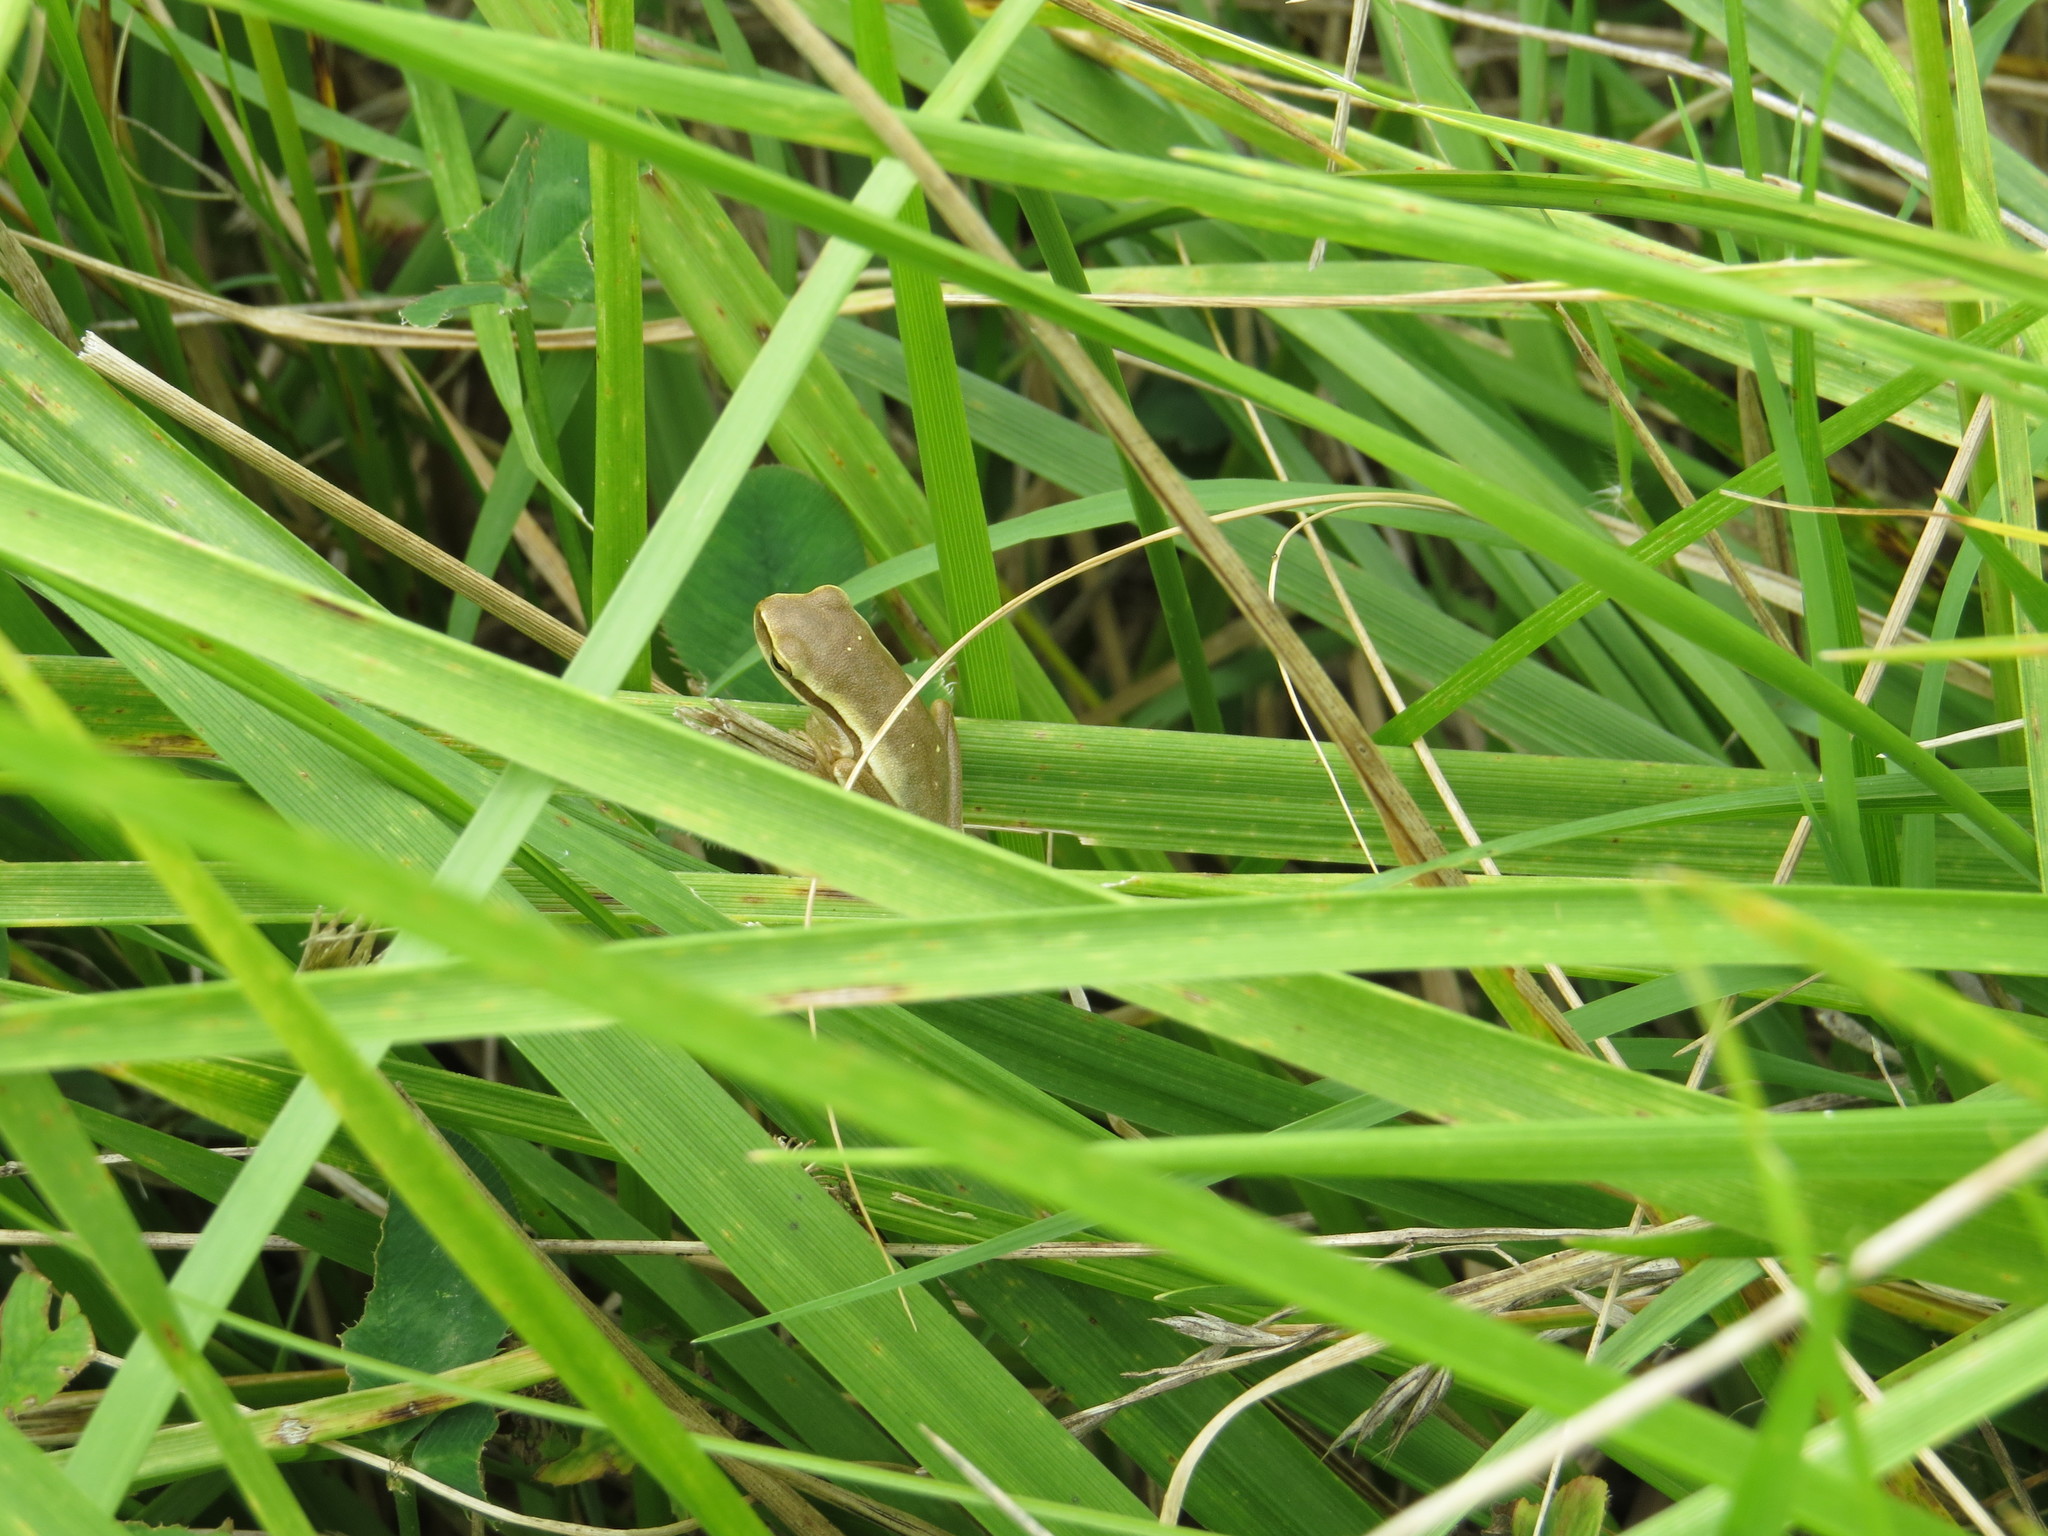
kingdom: Animalia
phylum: Chordata
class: Amphibia
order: Anura
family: Hylidae
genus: Boana
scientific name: Boana pulchella
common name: Montevideo treefrog
